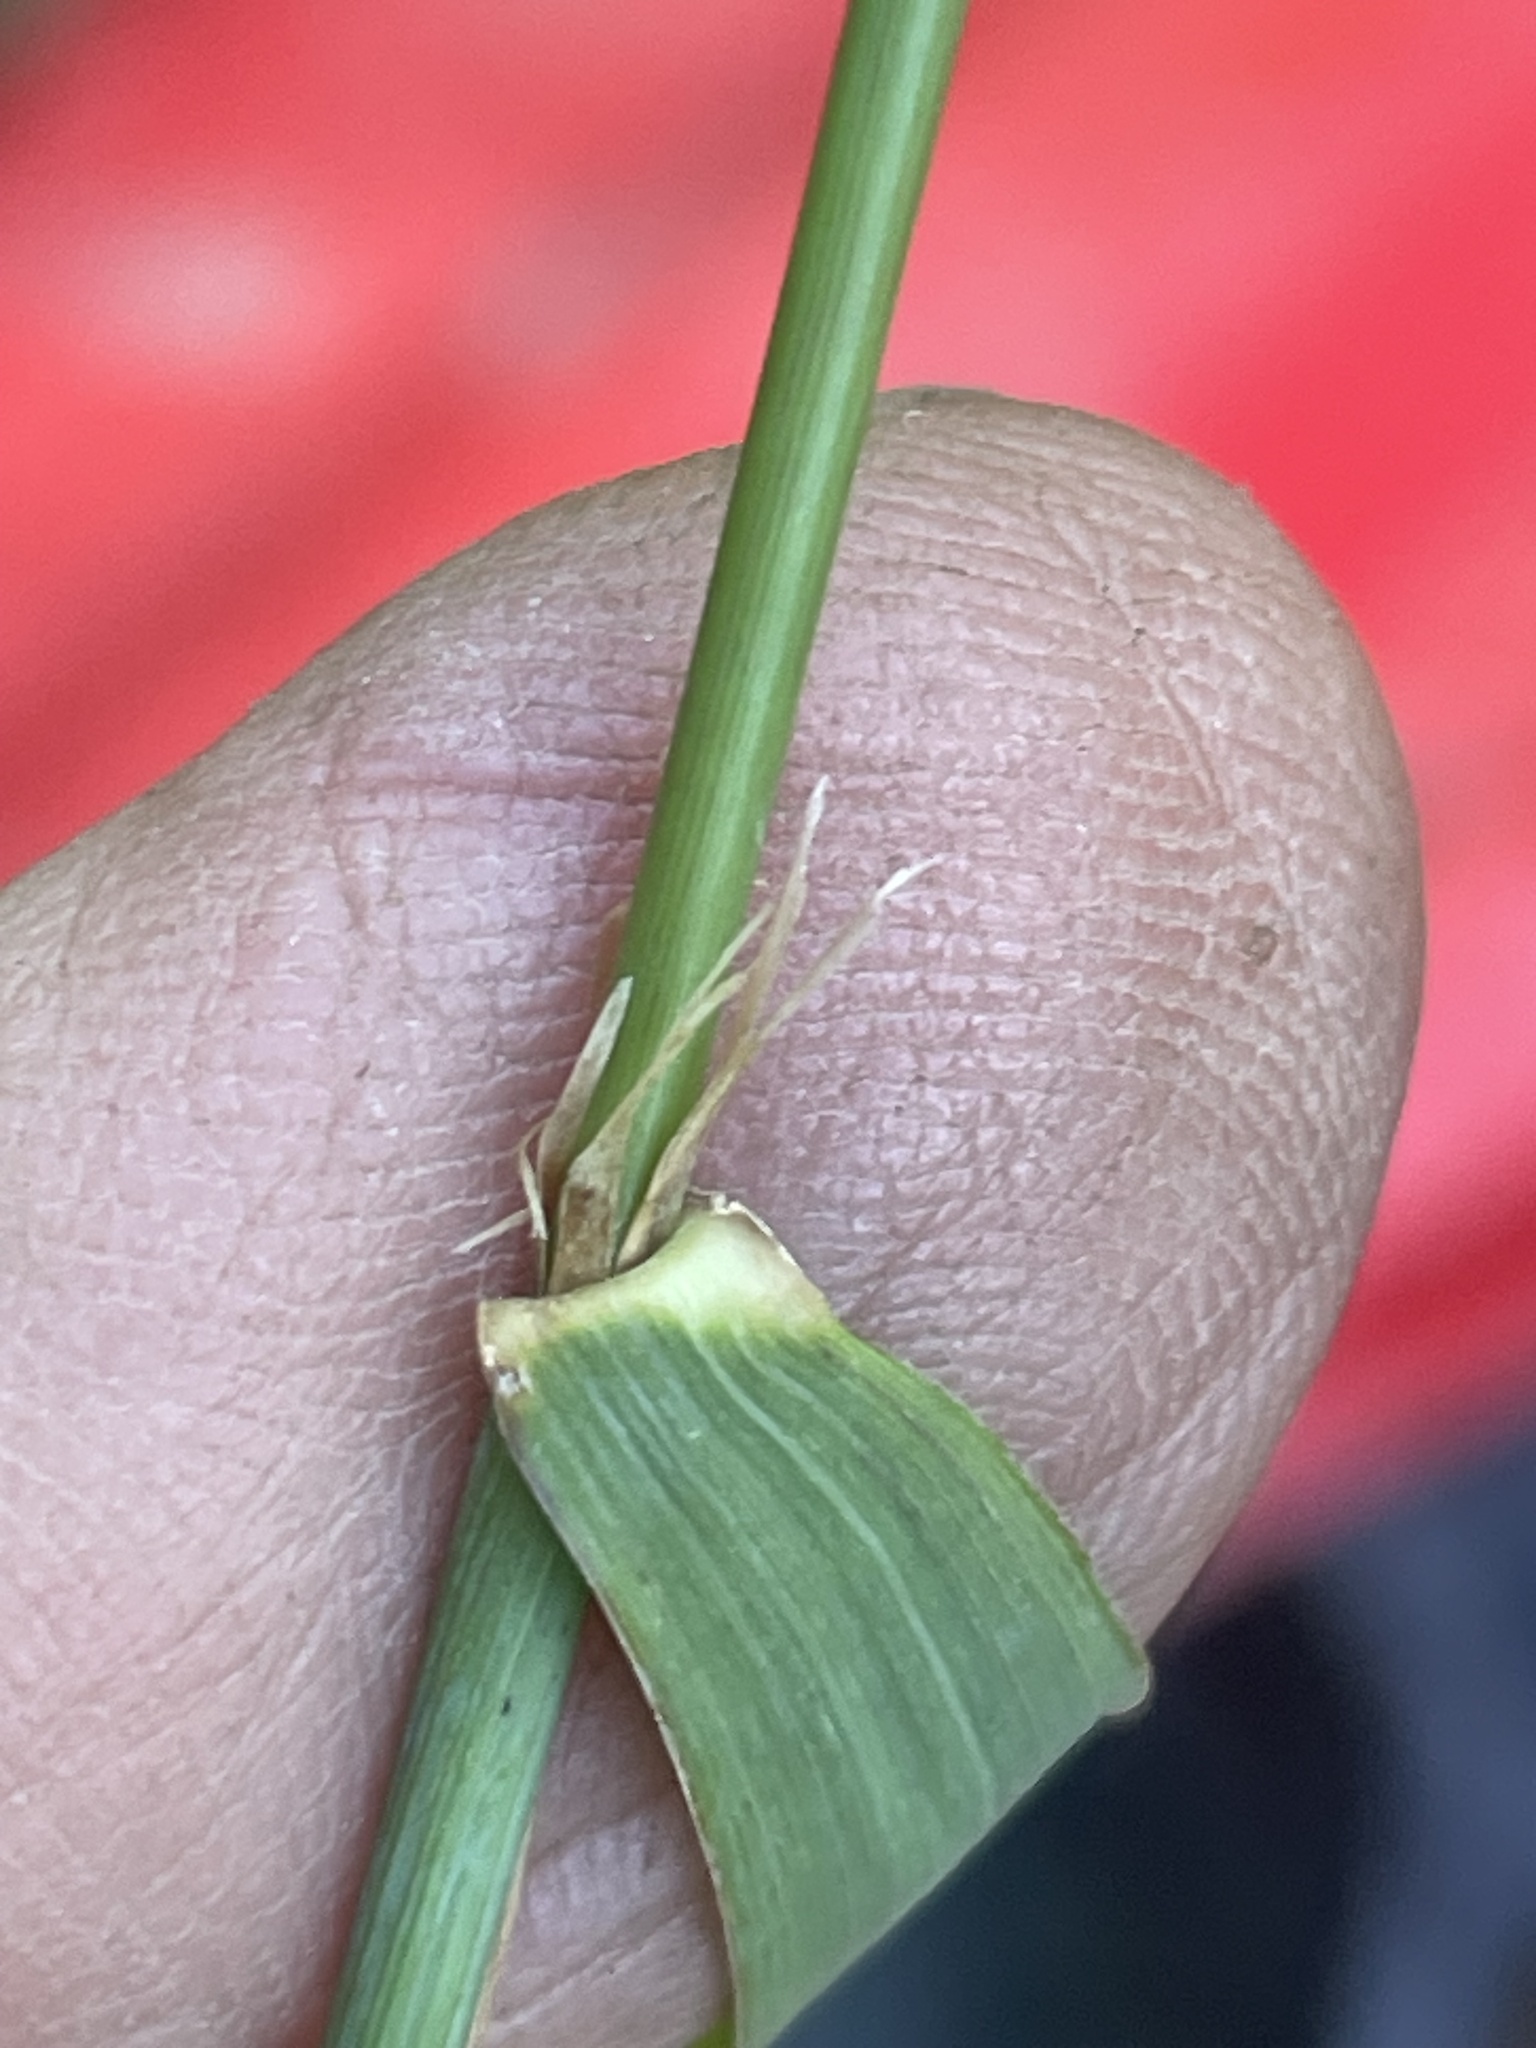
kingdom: Plantae
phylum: Tracheophyta
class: Liliopsida
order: Poales
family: Poaceae
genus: Cinna
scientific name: Cinna arundinacea
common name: Stout woodreed
